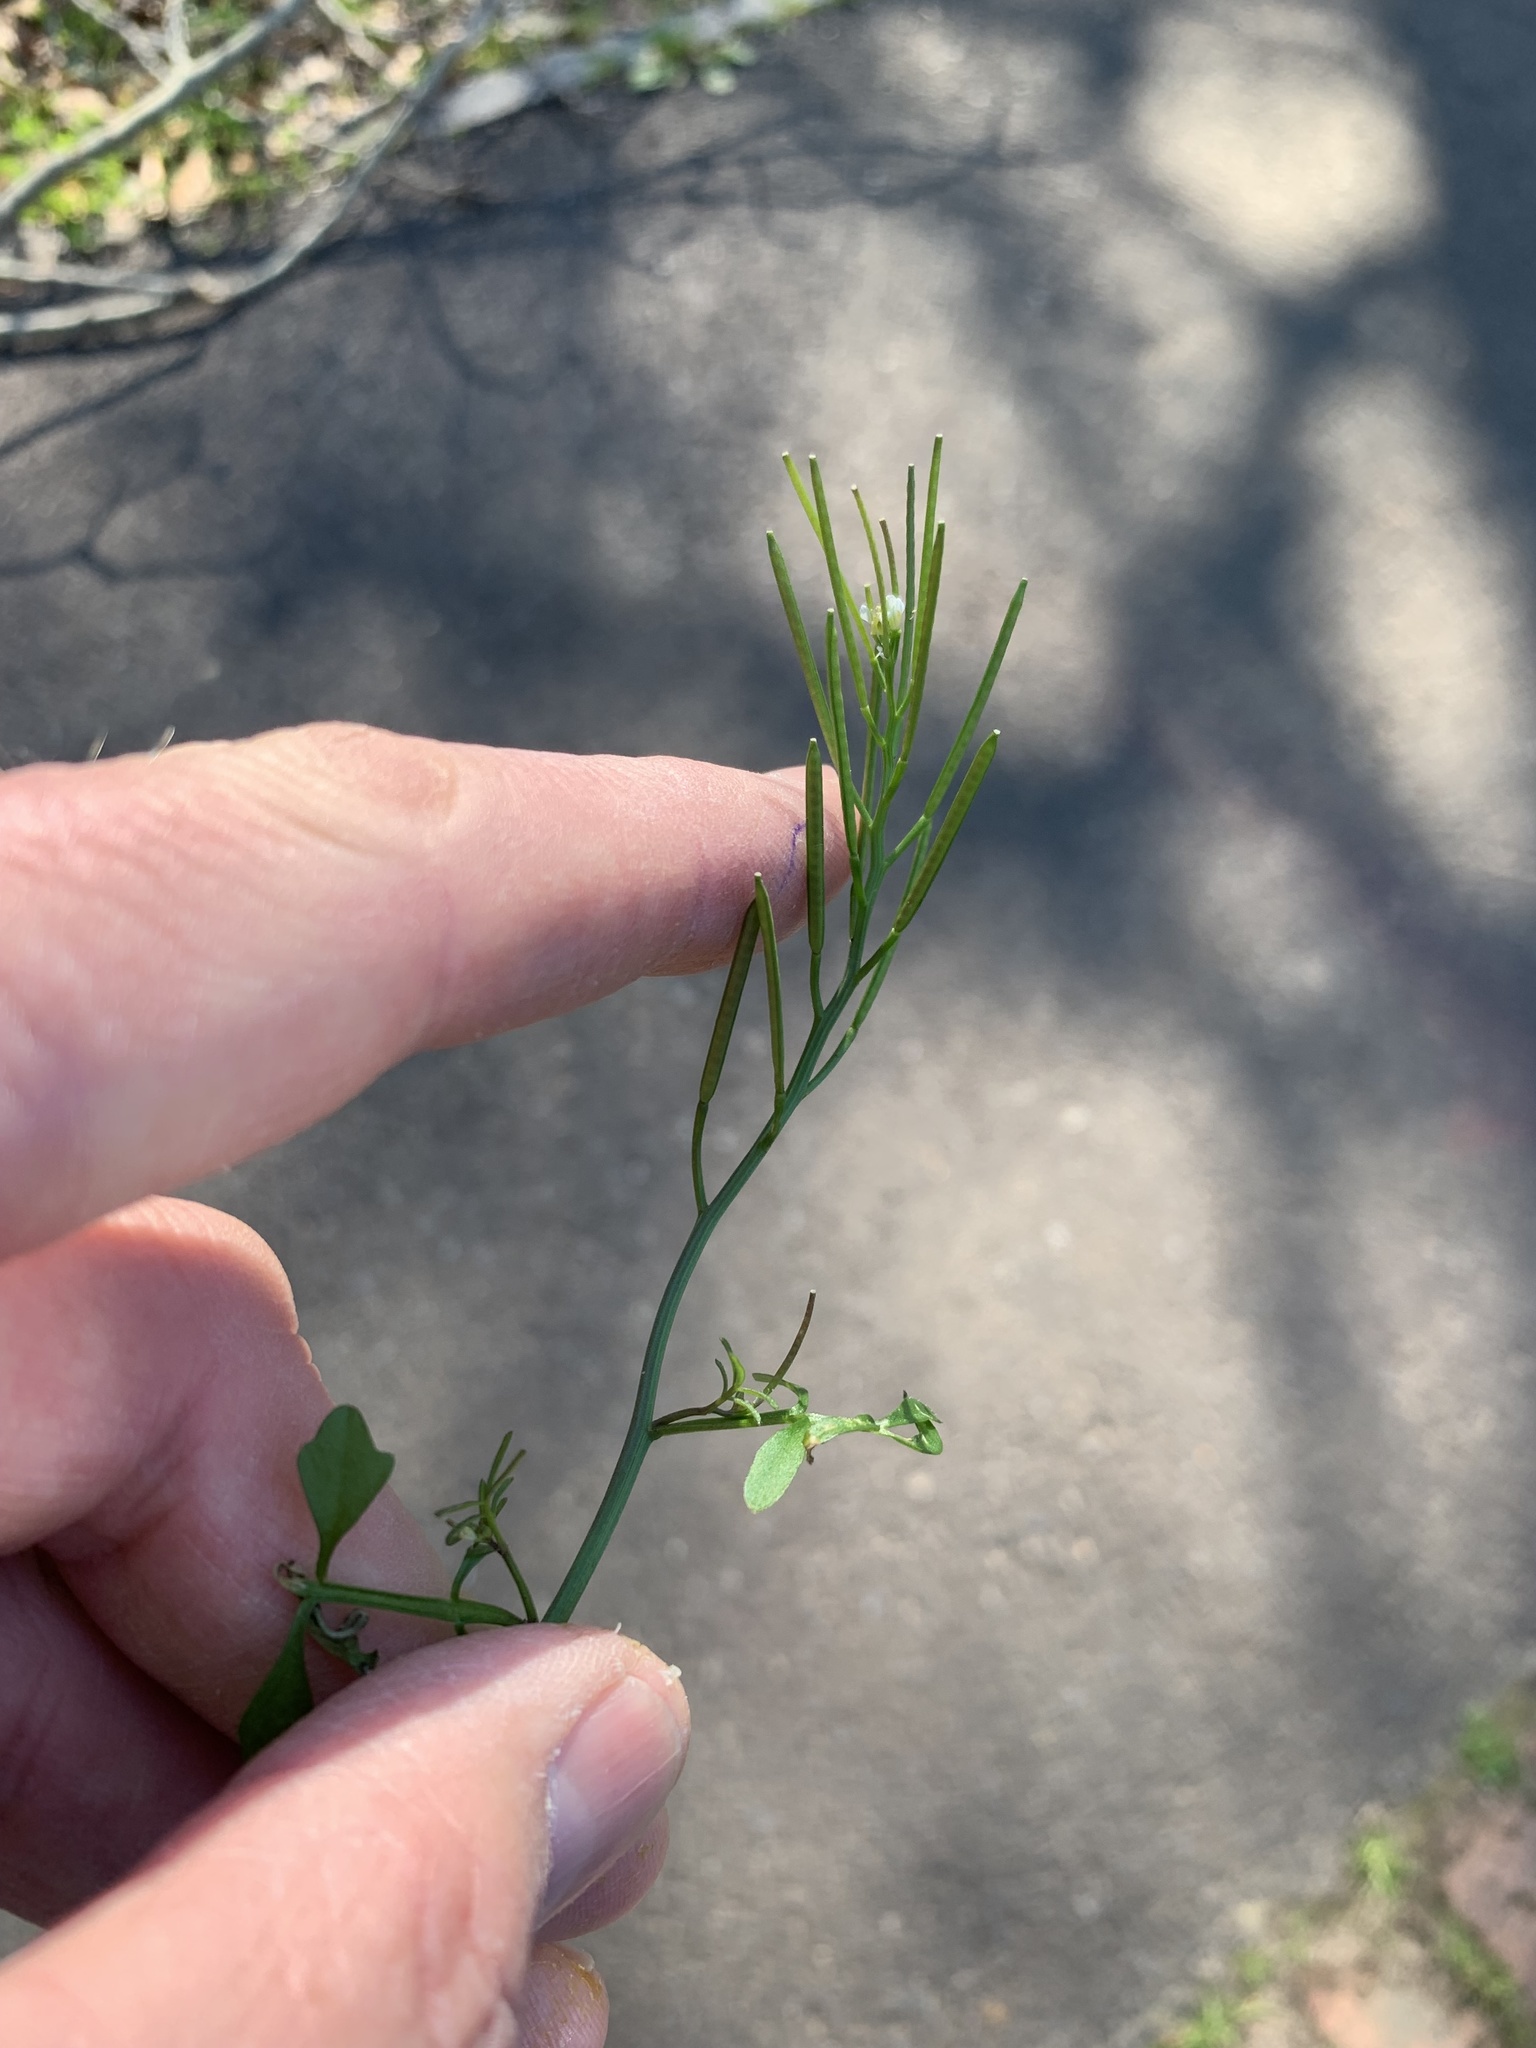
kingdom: Plantae
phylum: Tracheophyta
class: Magnoliopsida
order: Brassicales
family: Brassicaceae
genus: Cardamine
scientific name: Cardamine hirsuta
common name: Hairy bittercress
